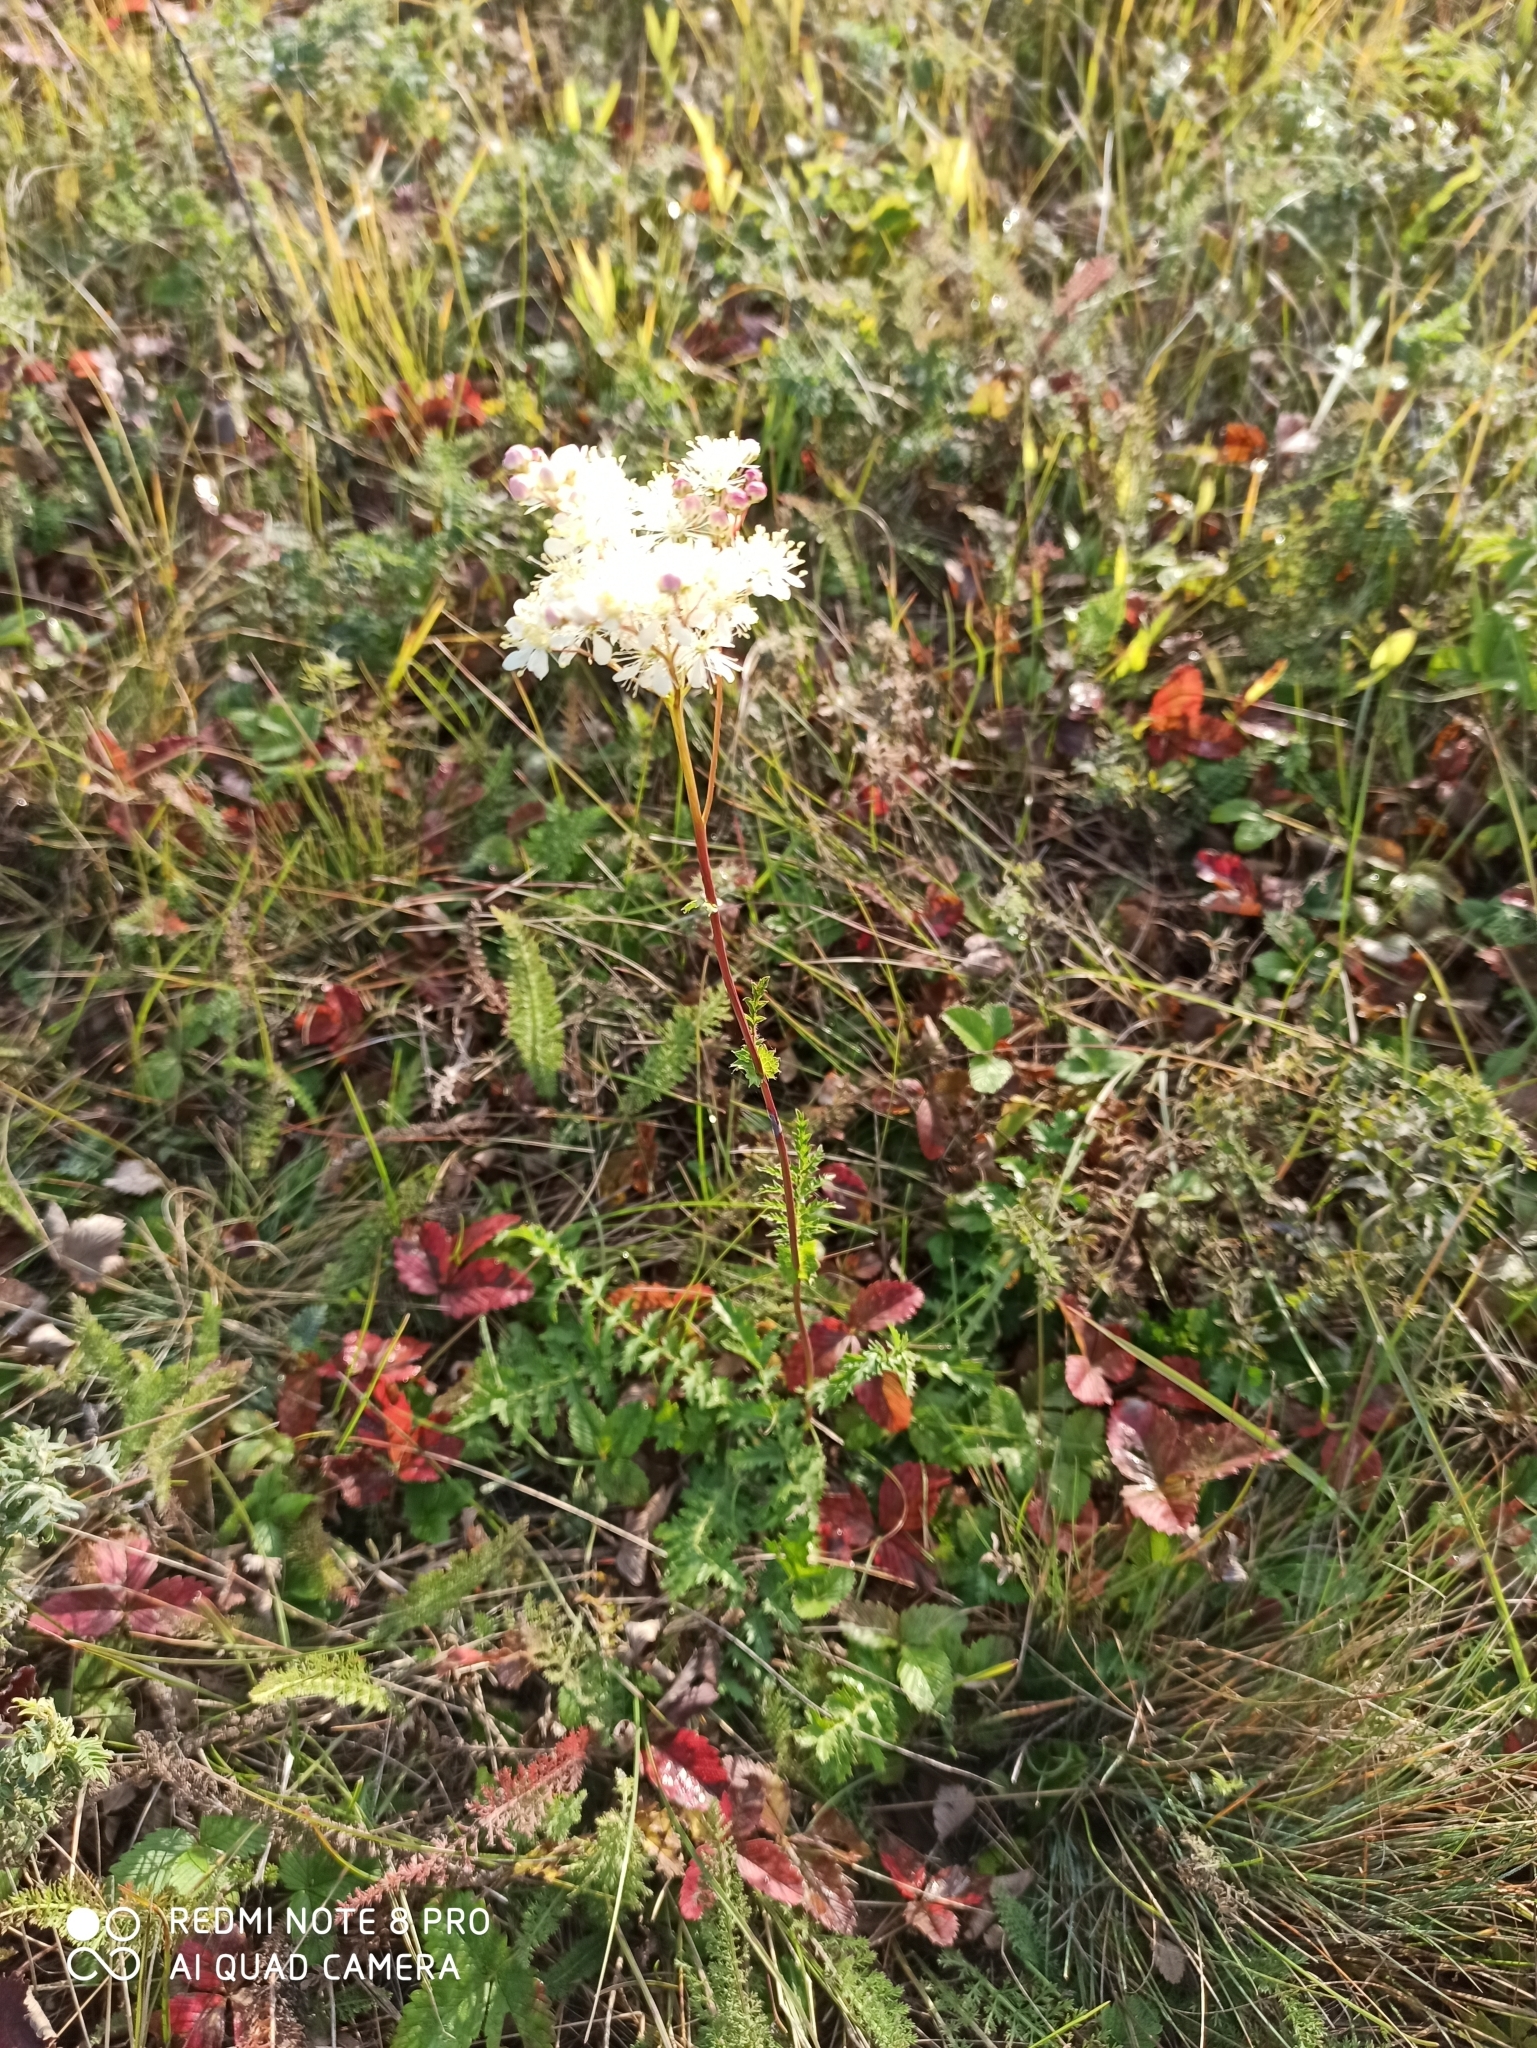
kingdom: Plantae
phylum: Tracheophyta
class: Magnoliopsida
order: Rosales
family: Rosaceae
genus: Filipendula
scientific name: Filipendula vulgaris
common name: Dropwort
